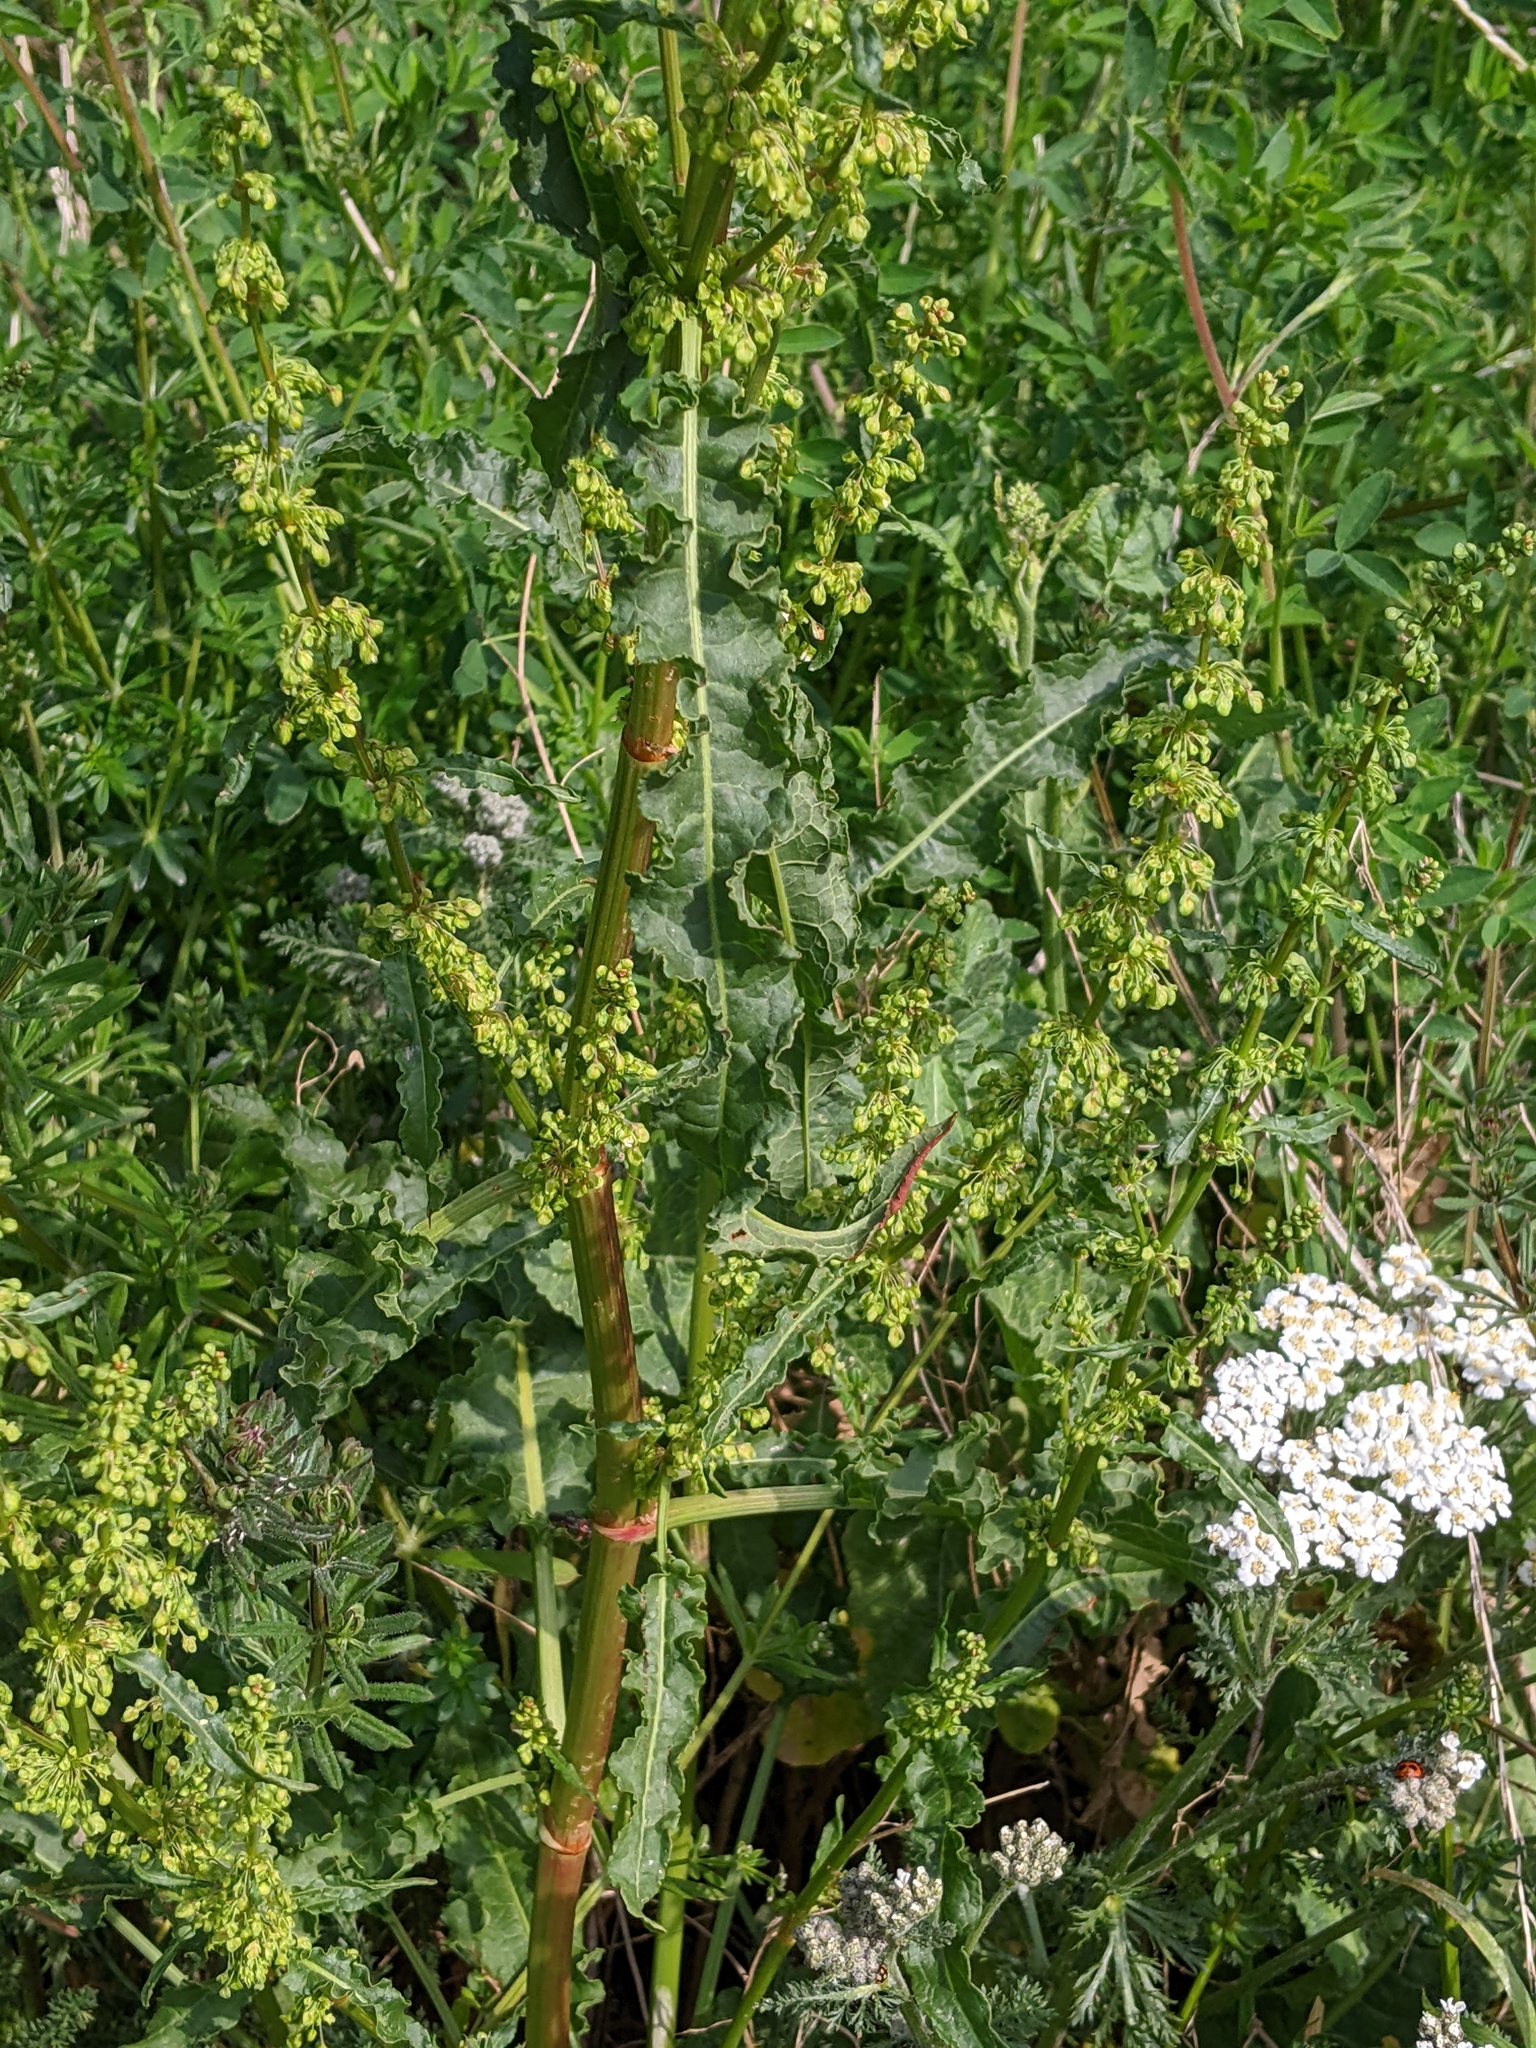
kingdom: Plantae
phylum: Tracheophyta
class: Magnoliopsida
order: Caryophyllales
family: Polygonaceae
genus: Rumex
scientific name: Rumex crispus
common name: Curled dock
